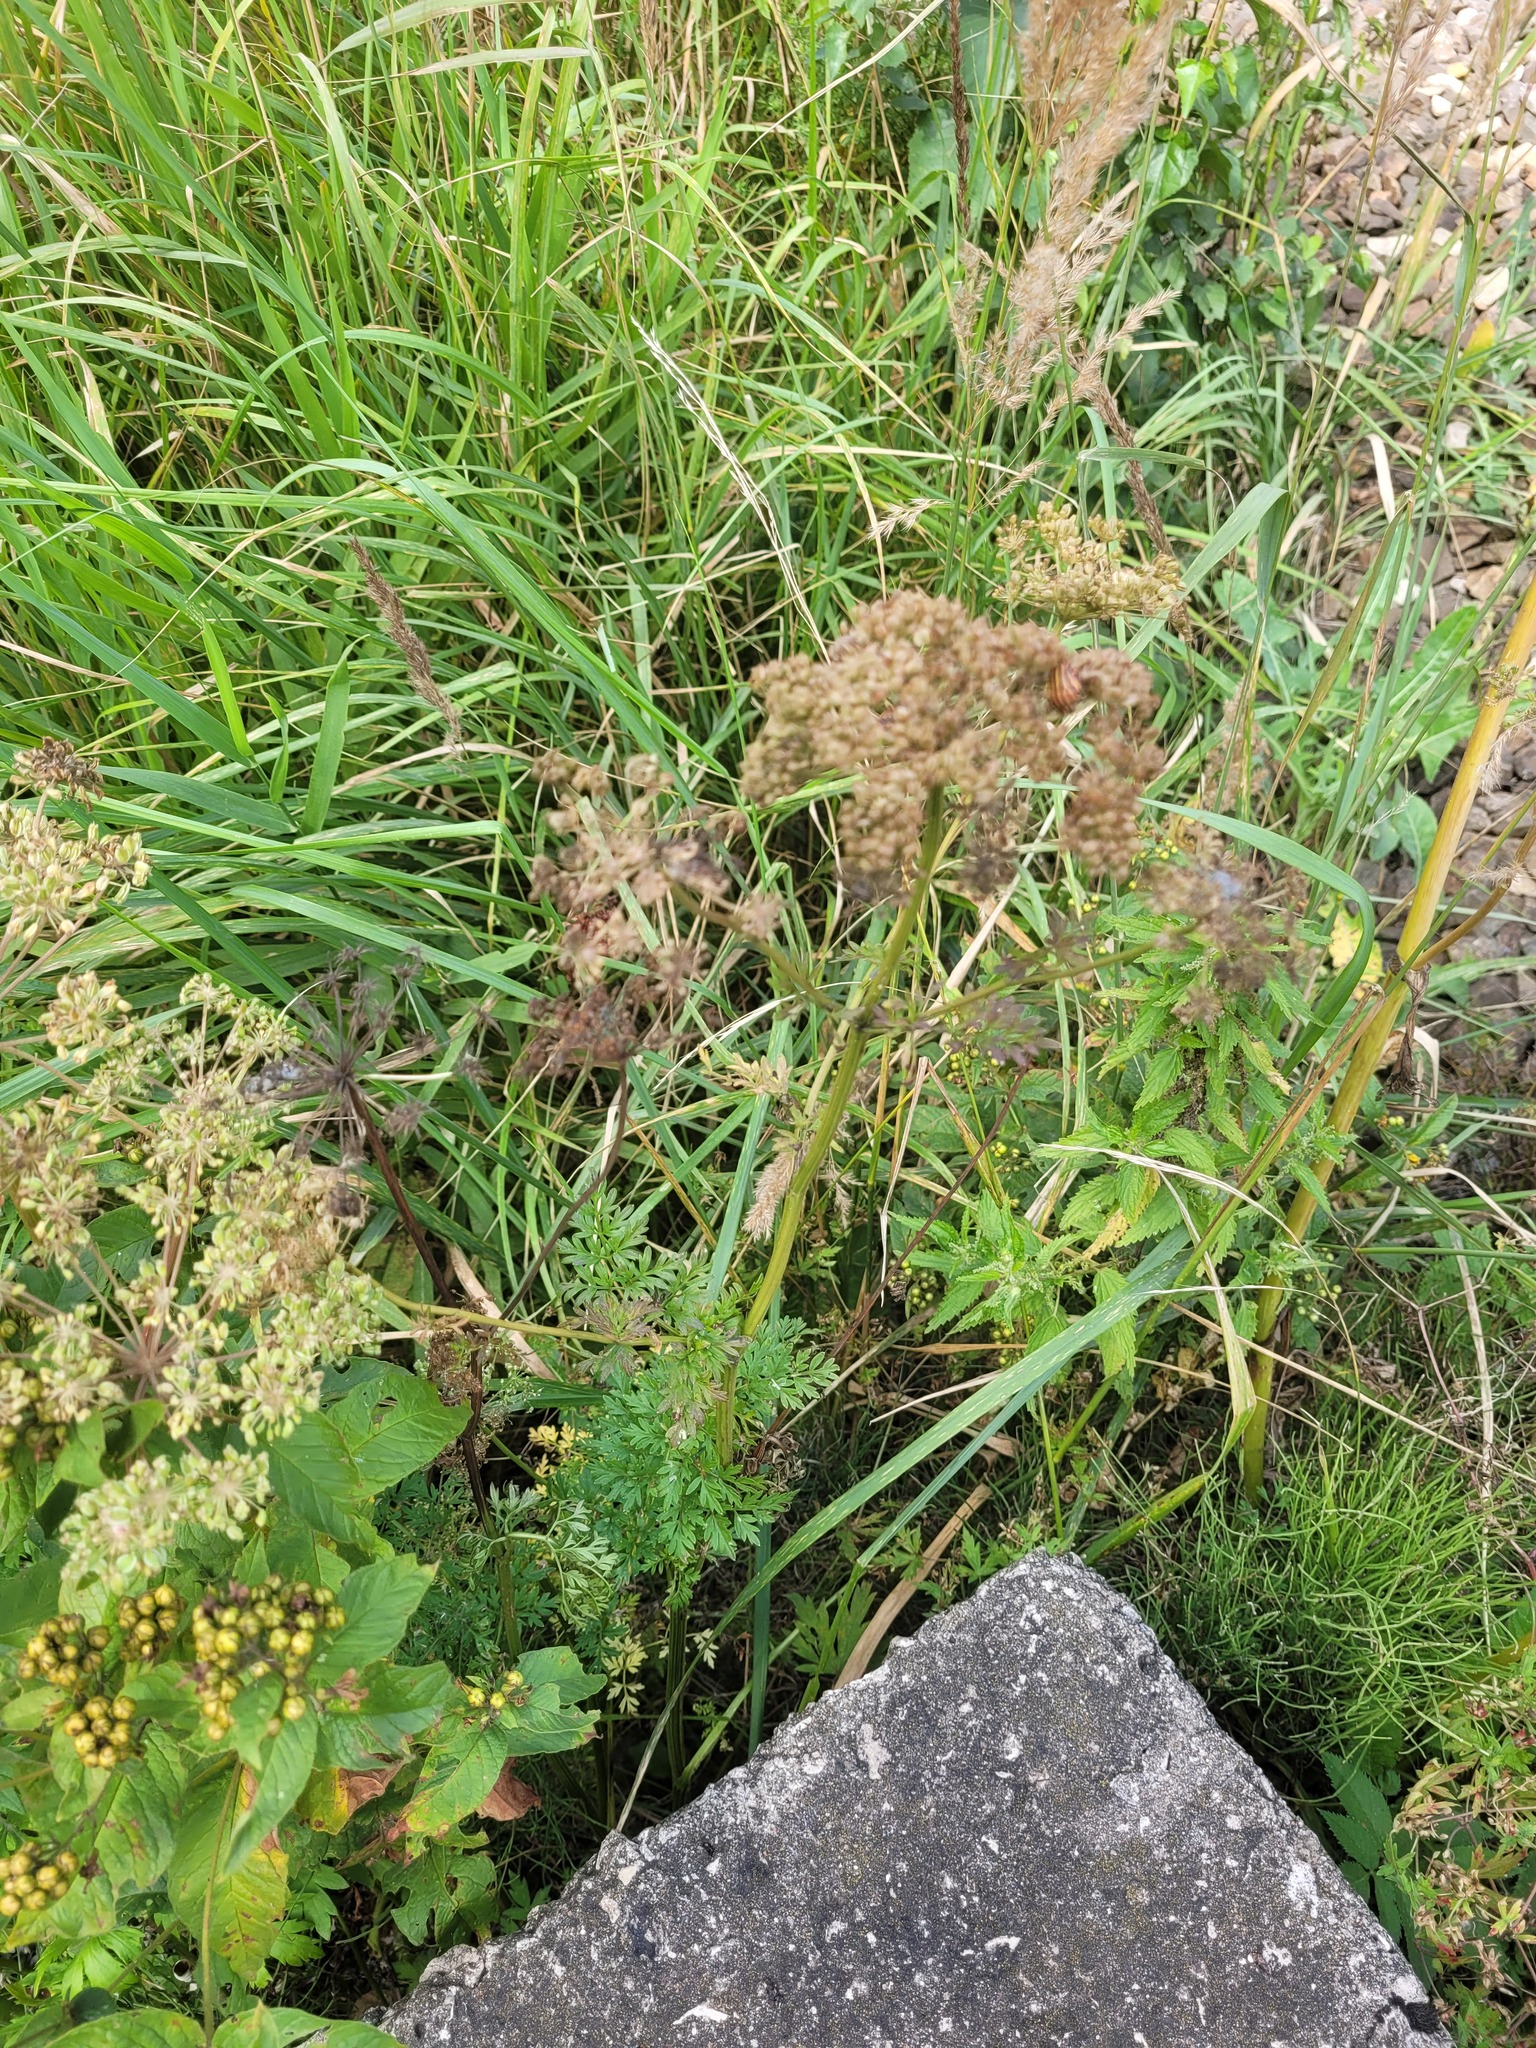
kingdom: Plantae
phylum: Tracheophyta
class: Magnoliopsida
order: Apiales
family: Apiaceae
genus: Selinum
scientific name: Selinum carvifolia
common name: Cambridge milk-parsley
